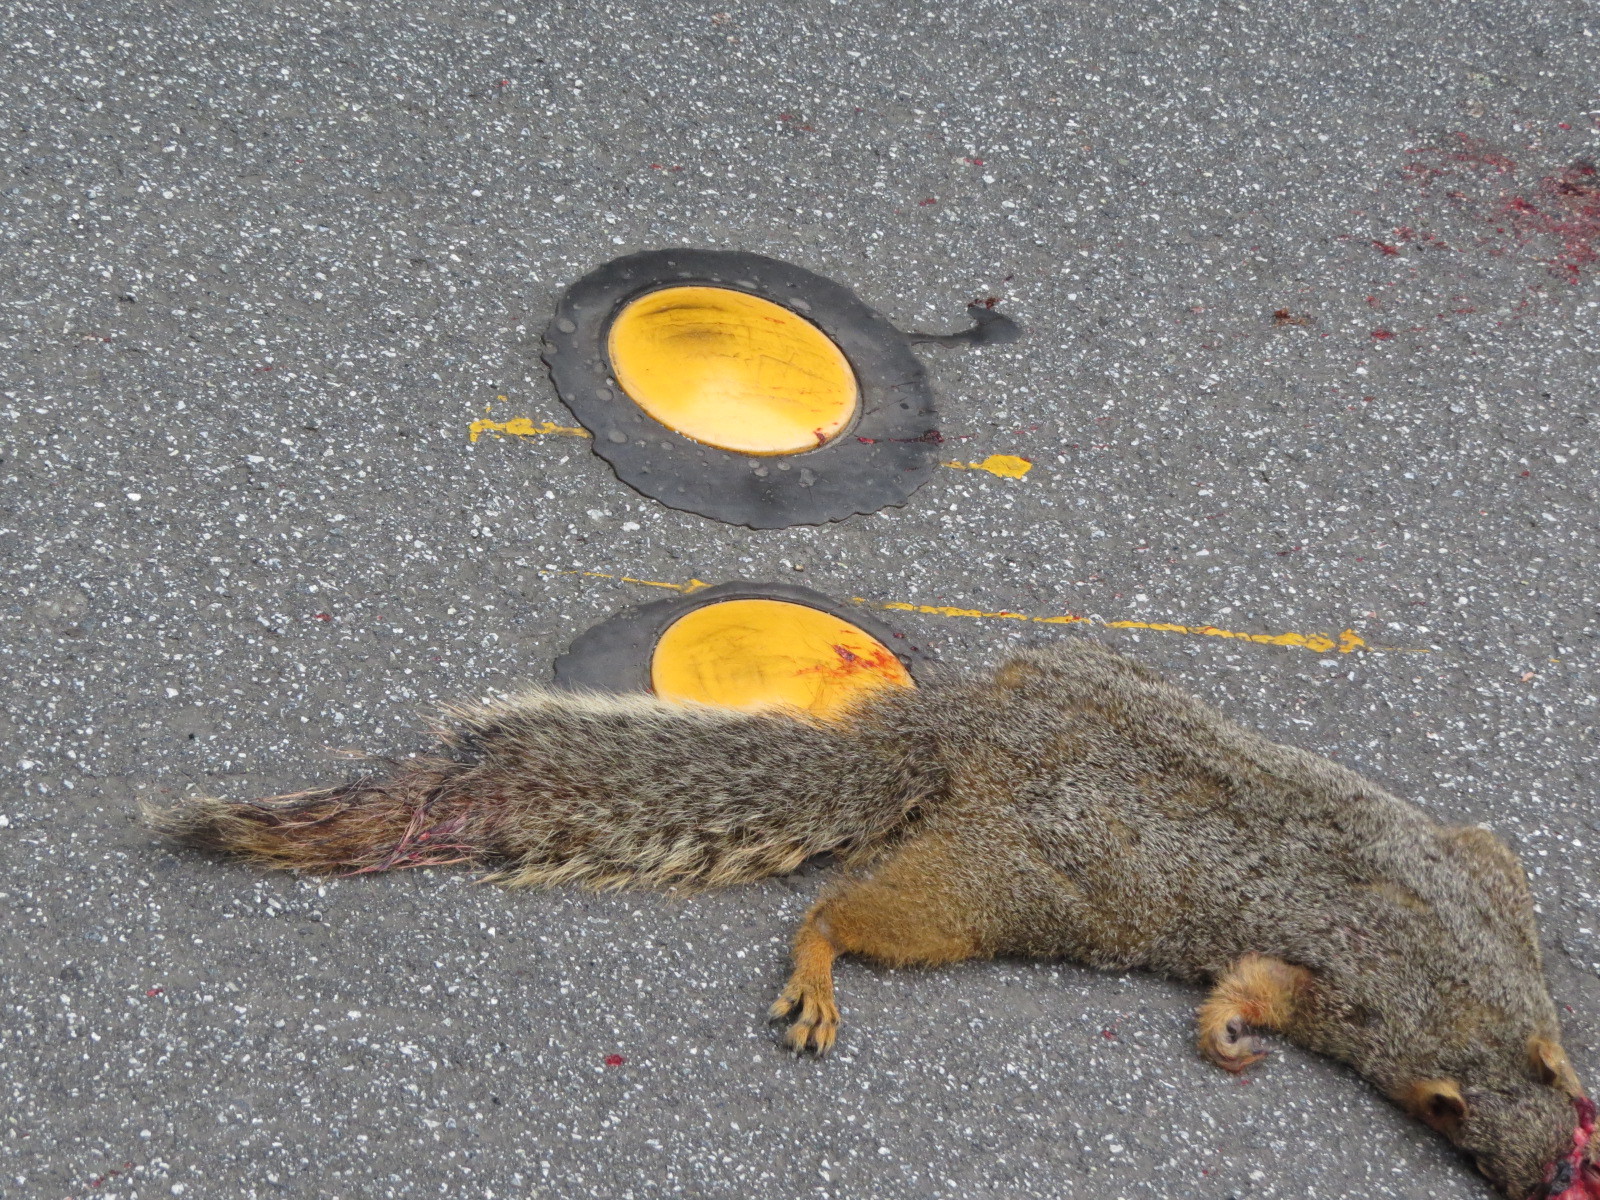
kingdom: Animalia
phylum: Chordata
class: Mammalia
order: Rodentia
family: Sciuridae
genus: Sciurus
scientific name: Sciurus niger
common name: Fox squirrel
